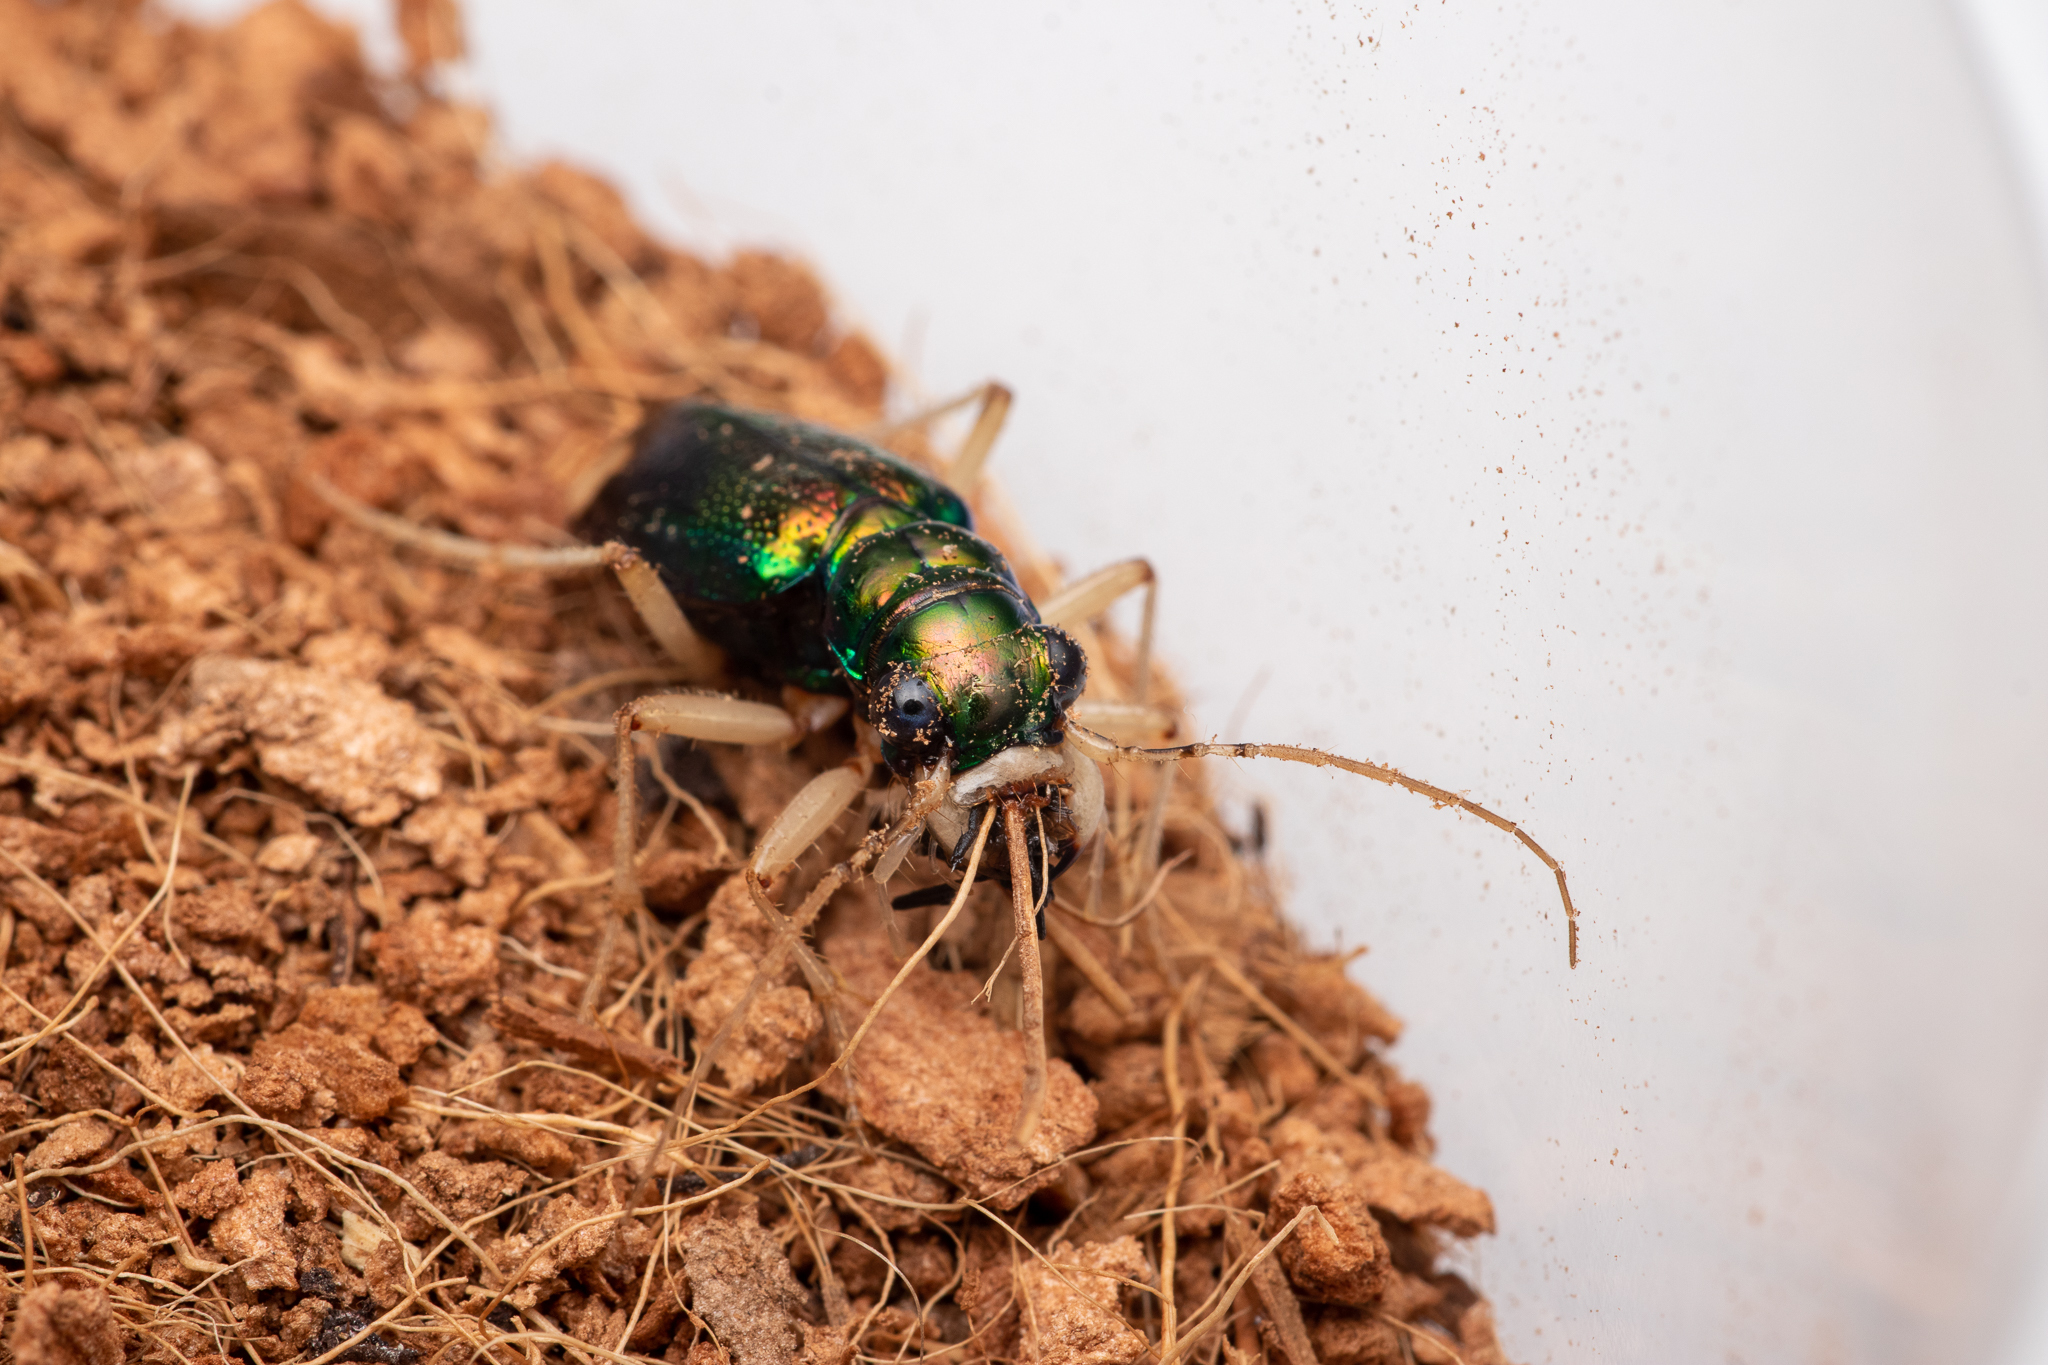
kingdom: Animalia
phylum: Arthropoda
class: Insecta
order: Coleoptera
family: Carabidae
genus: Tetracha
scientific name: Tetracha carolina
